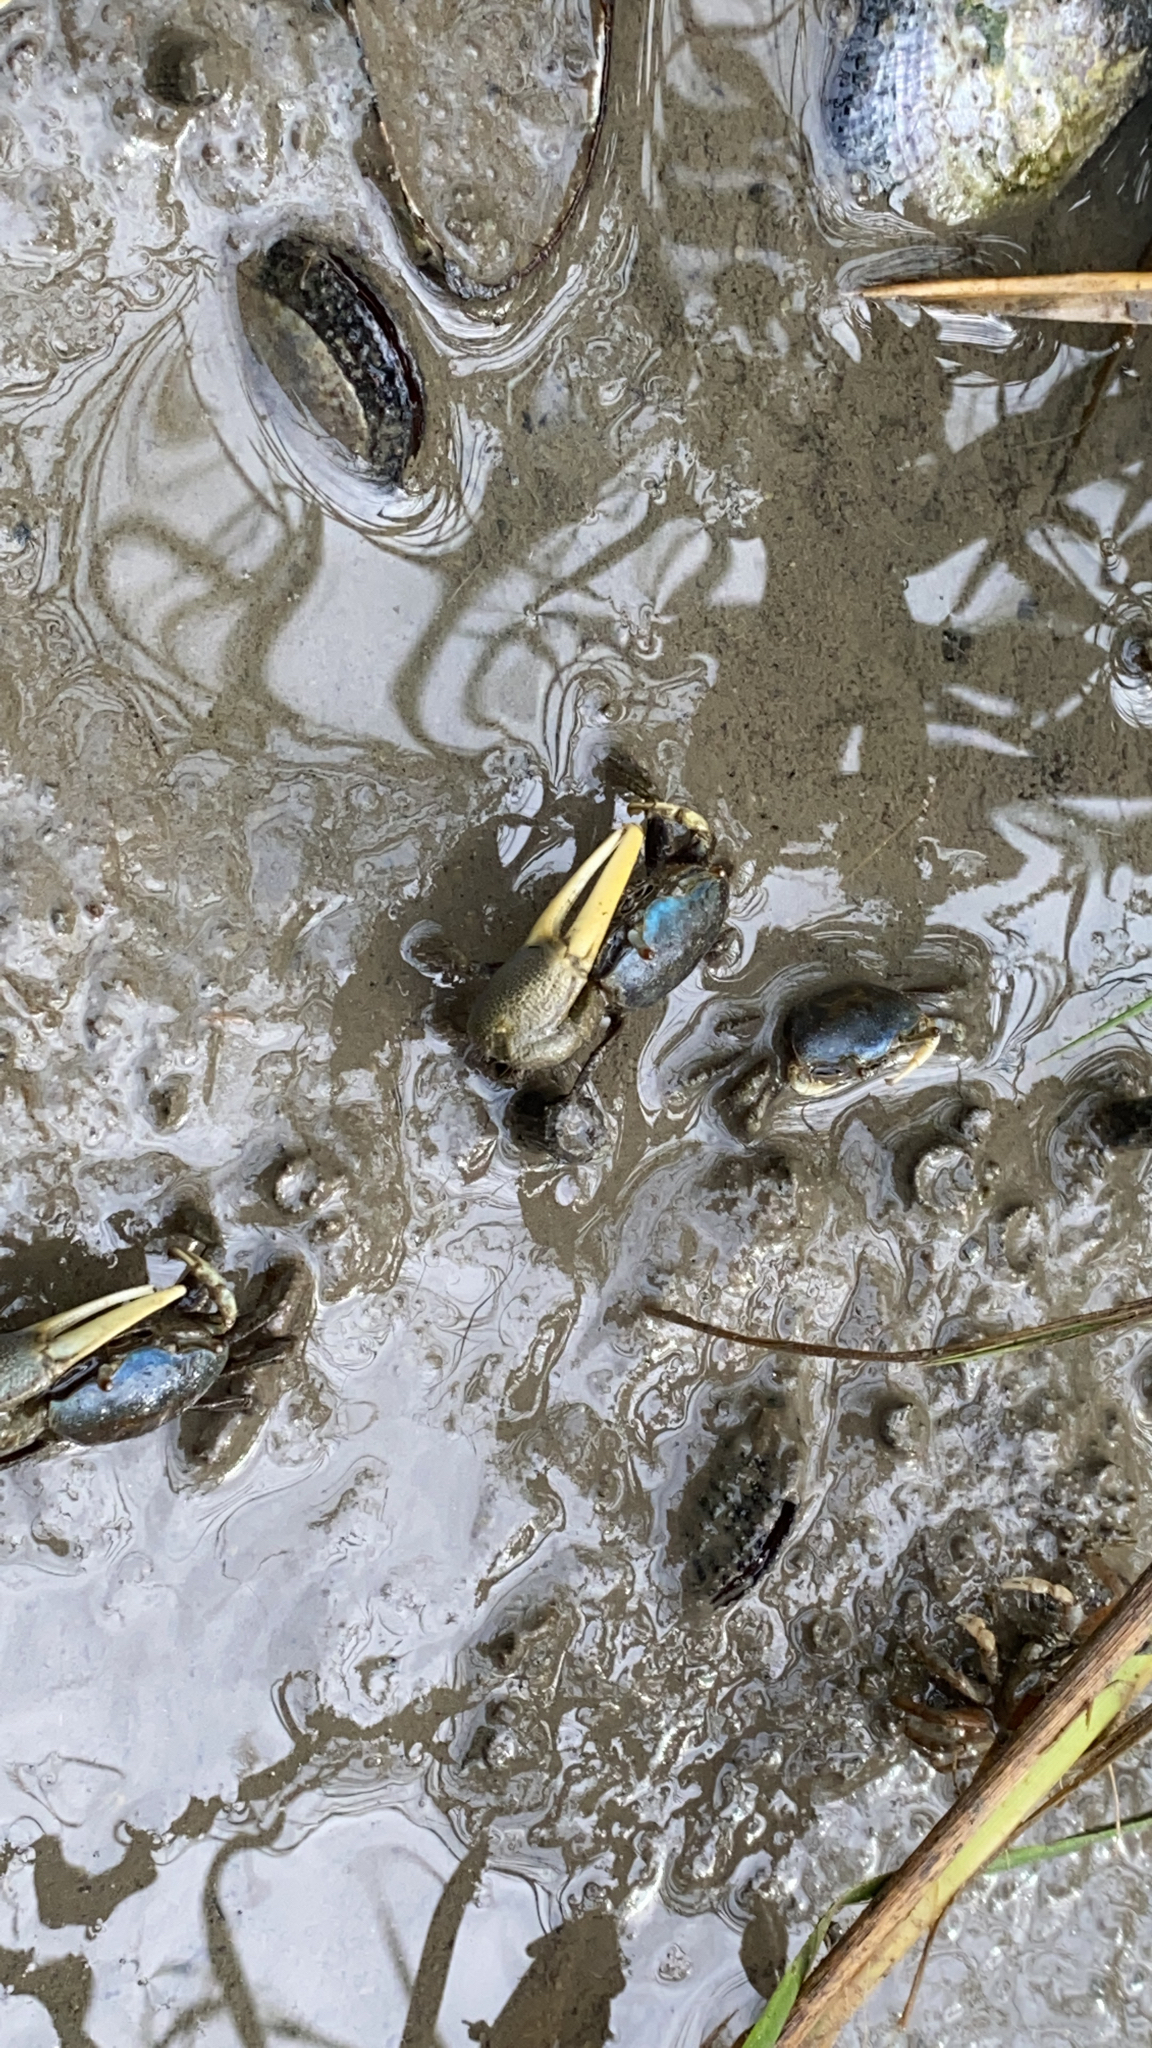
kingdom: Animalia
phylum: Arthropoda
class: Malacostraca
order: Decapoda
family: Ocypodidae
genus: Minuca
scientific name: Minuca pugnax
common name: Mud fiddler crab
